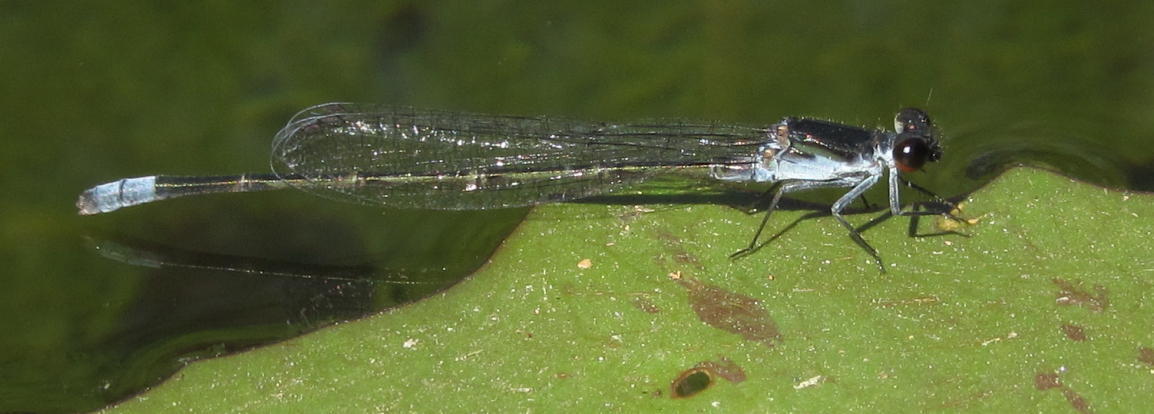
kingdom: Animalia
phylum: Arthropoda
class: Insecta
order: Odonata
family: Coenagrionidae
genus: Pseudagrion
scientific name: Pseudagrion commoniae
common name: Black sprite
